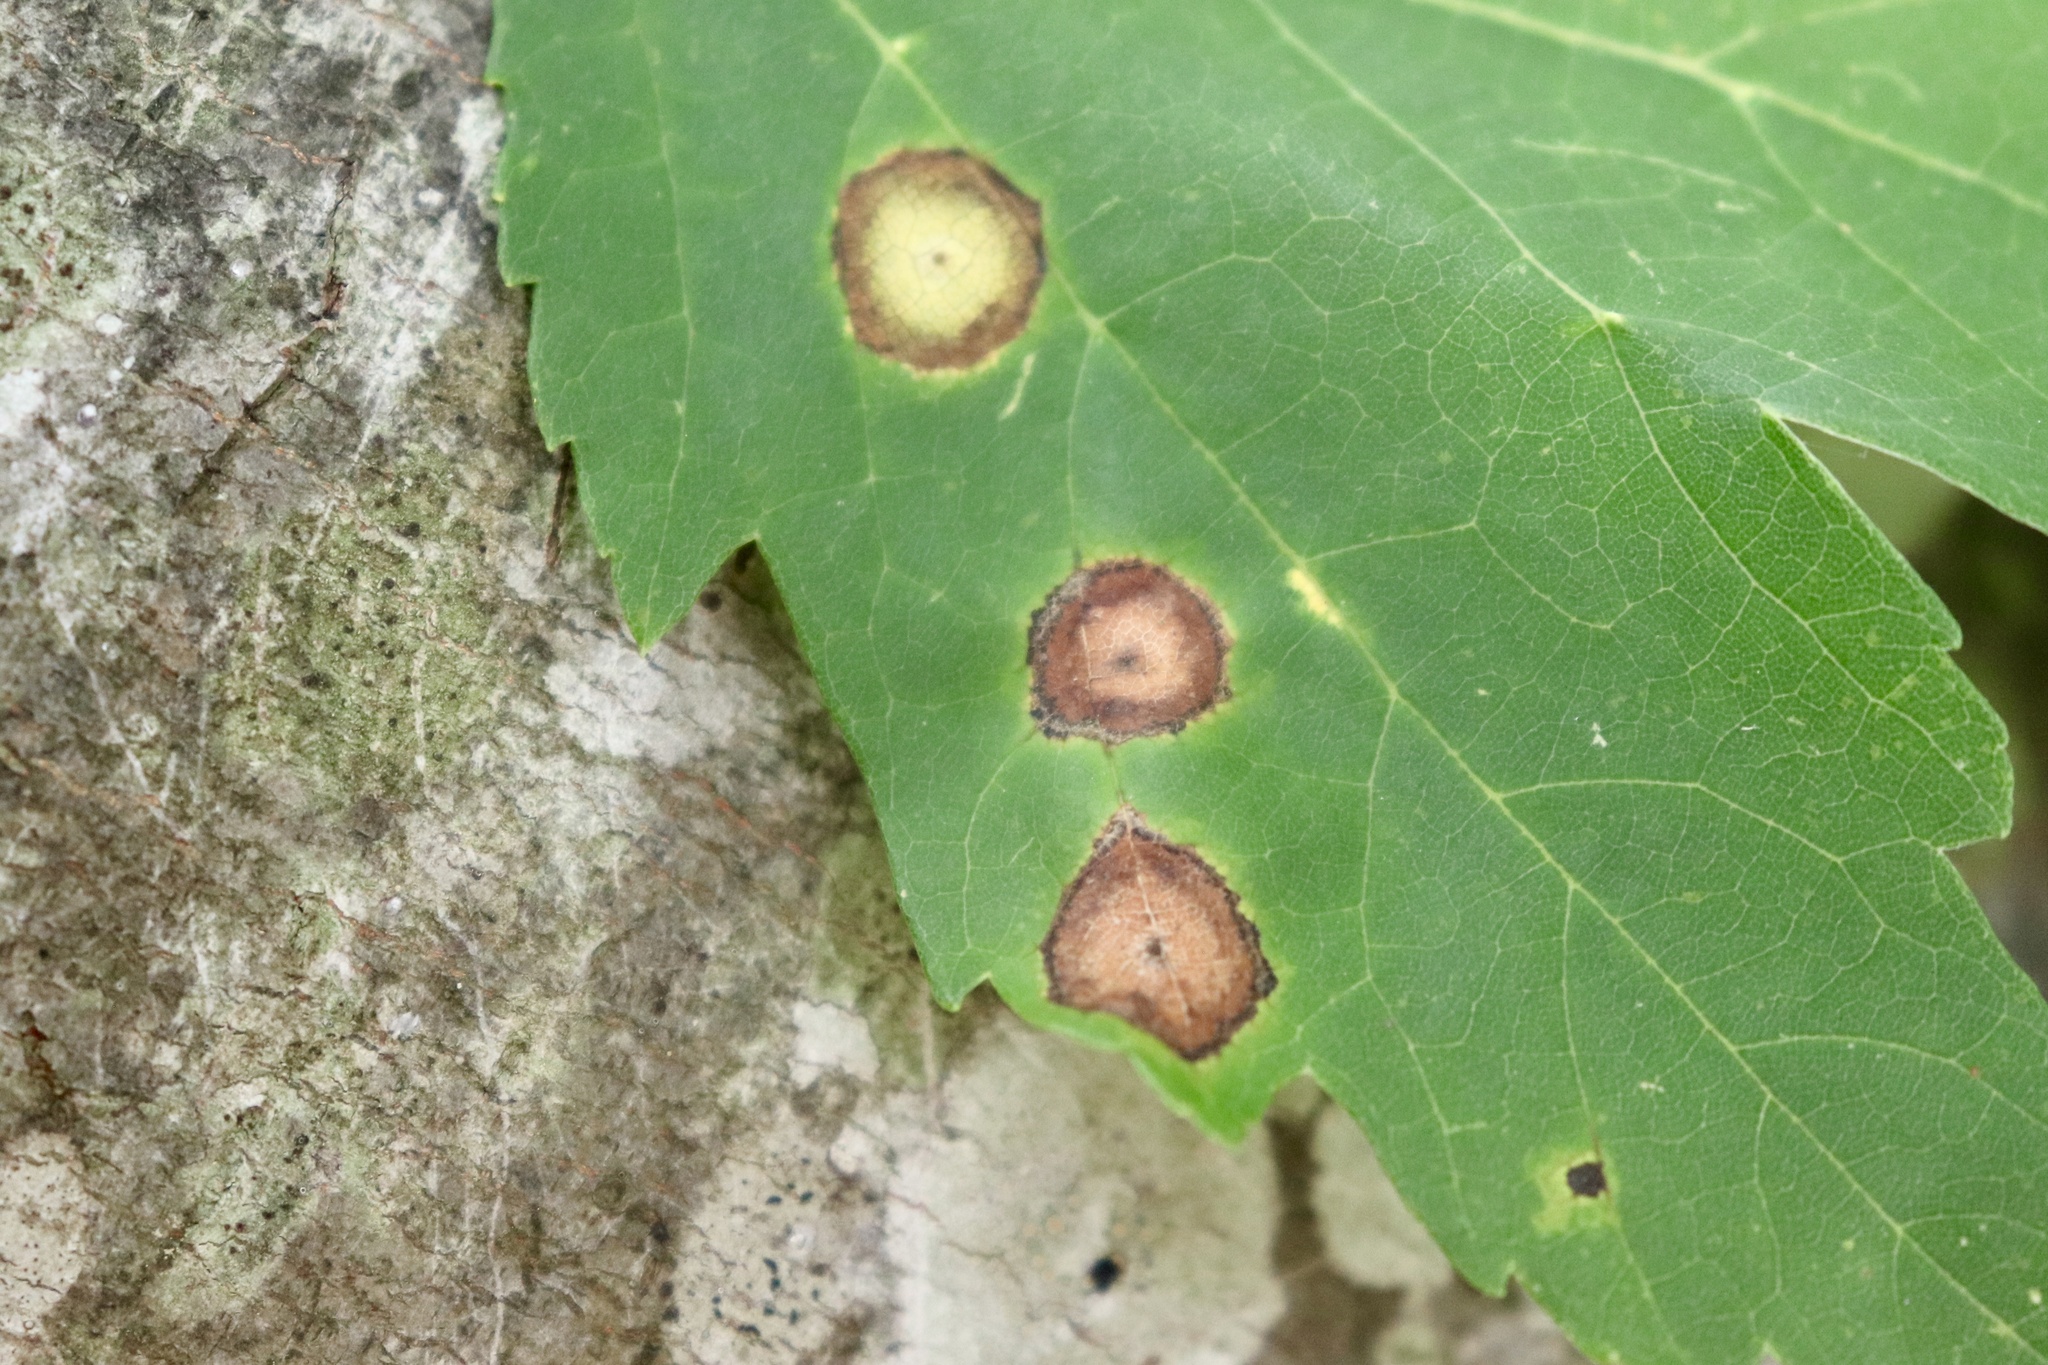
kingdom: Animalia
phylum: Arthropoda
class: Insecta
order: Diptera
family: Cecidomyiidae
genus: Acericecis
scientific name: Acericecis ocellaris
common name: Ocellate gall midge
